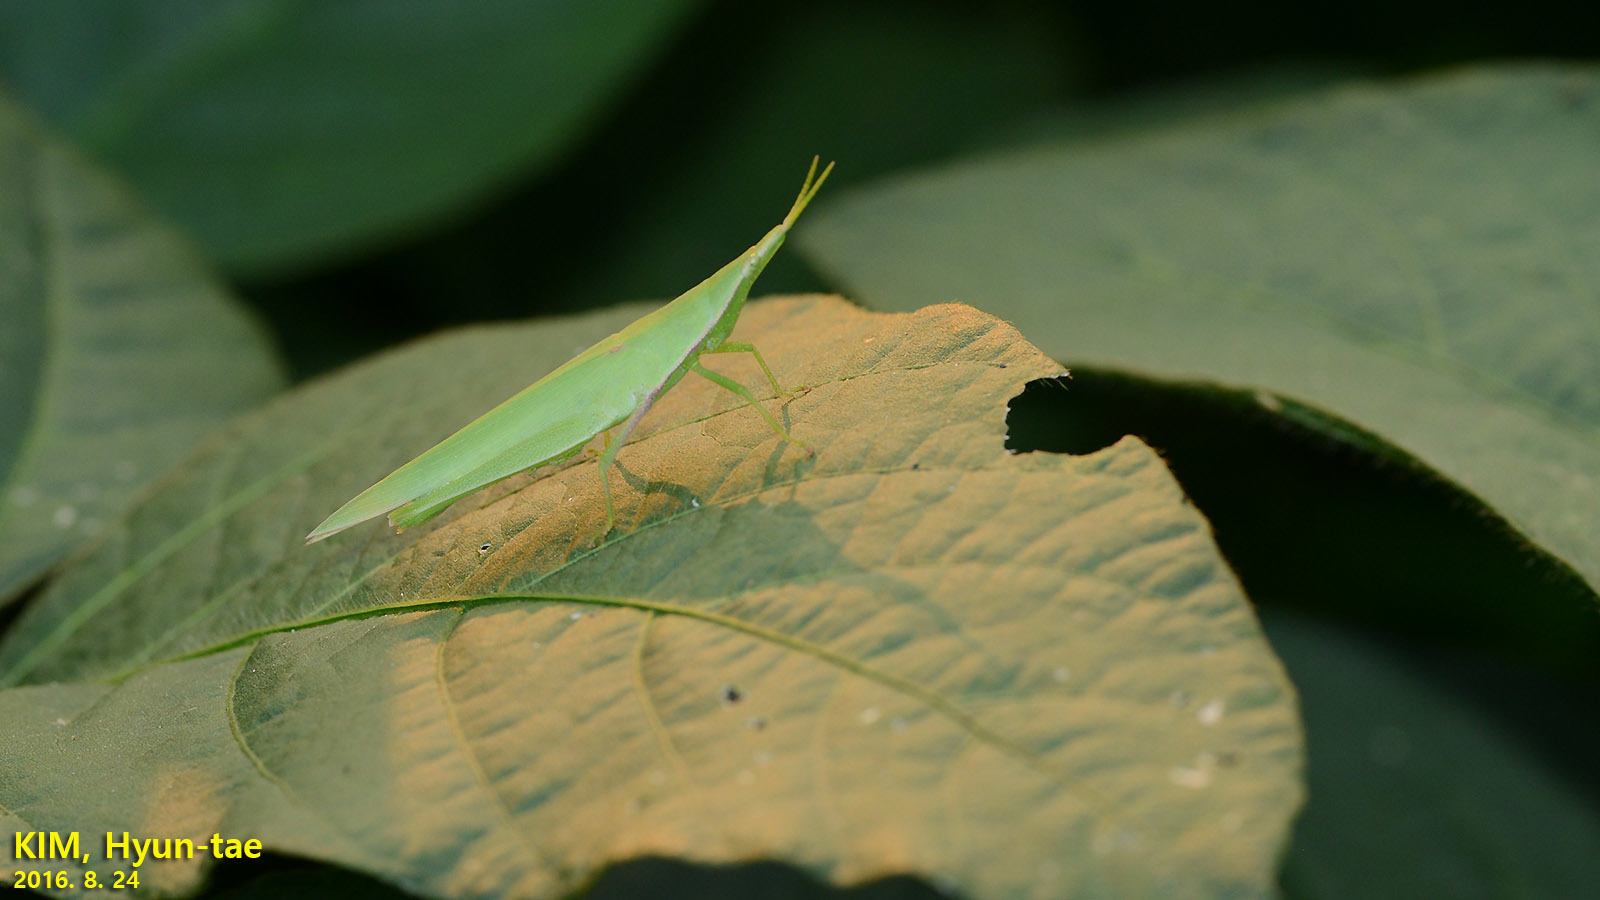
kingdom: Animalia
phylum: Arthropoda
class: Insecta
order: Orthoptera
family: Pyrgomorphidae
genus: Atractomorpha
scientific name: Atractomorpha lata
